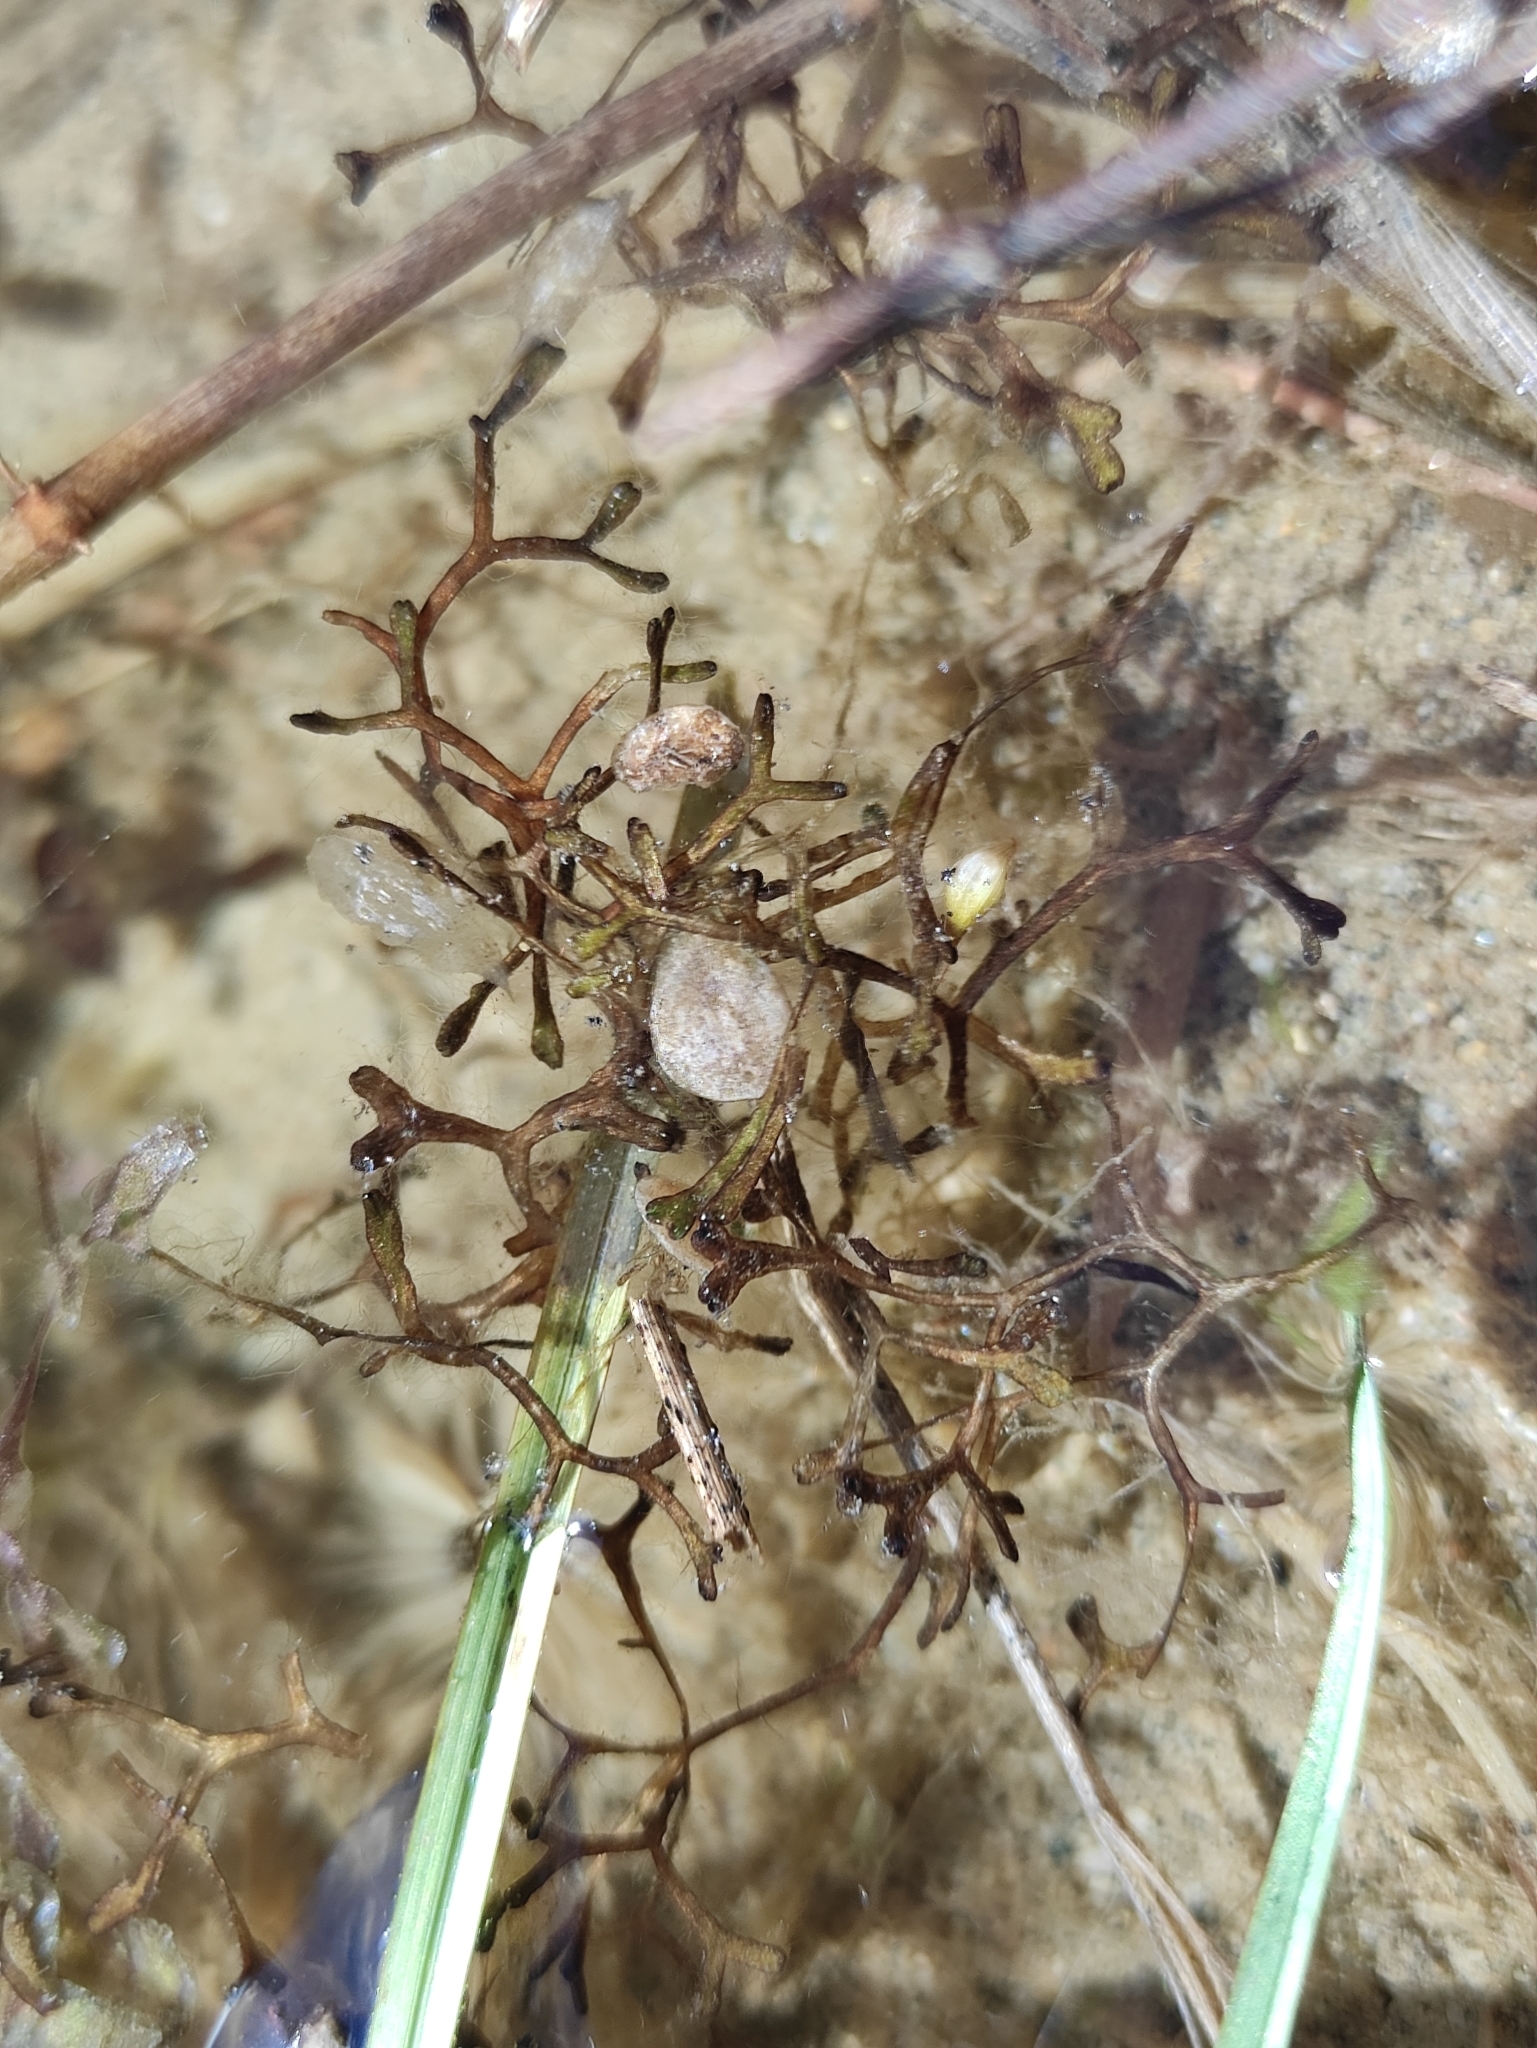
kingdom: Plantae
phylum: Marchantiophyta
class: Marchantiopsida
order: Marchantiales
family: Ricciaceae
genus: Riccia
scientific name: Riccia fluitans
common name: Floating crystalwort
